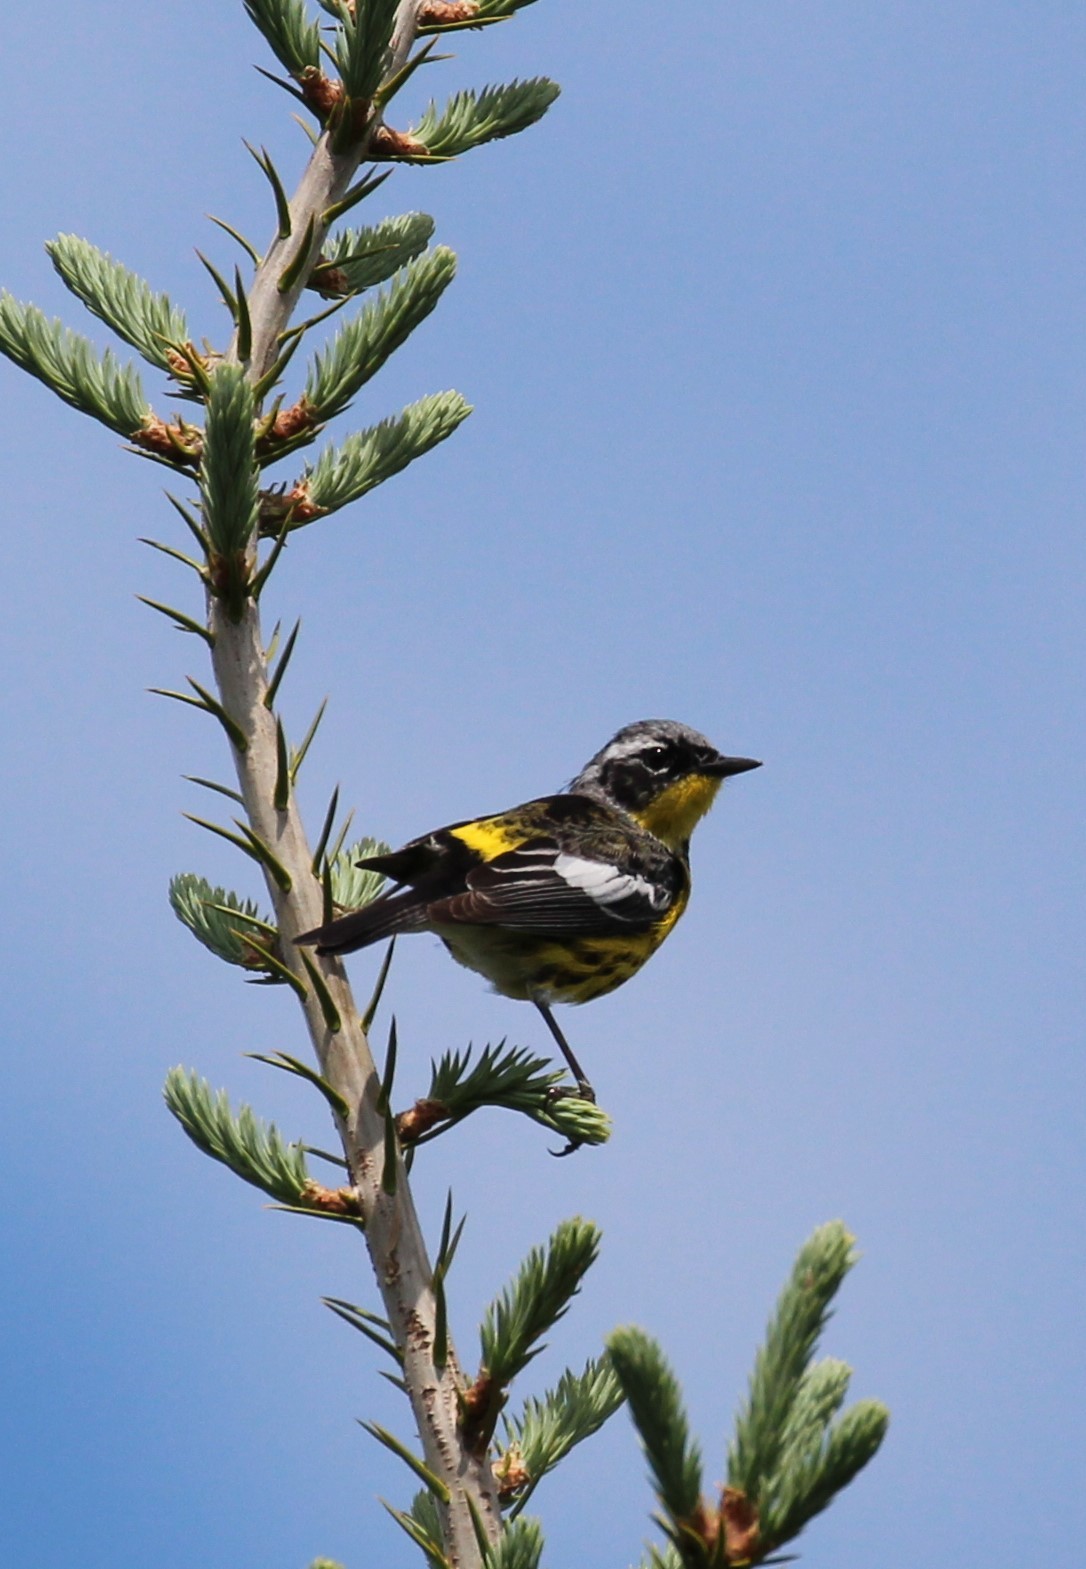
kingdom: Animalia
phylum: Chordata
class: Aves
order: Passeriformes
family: Parulidae
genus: Setophaga
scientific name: Setophaga magnolia
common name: Magnolia warbler
